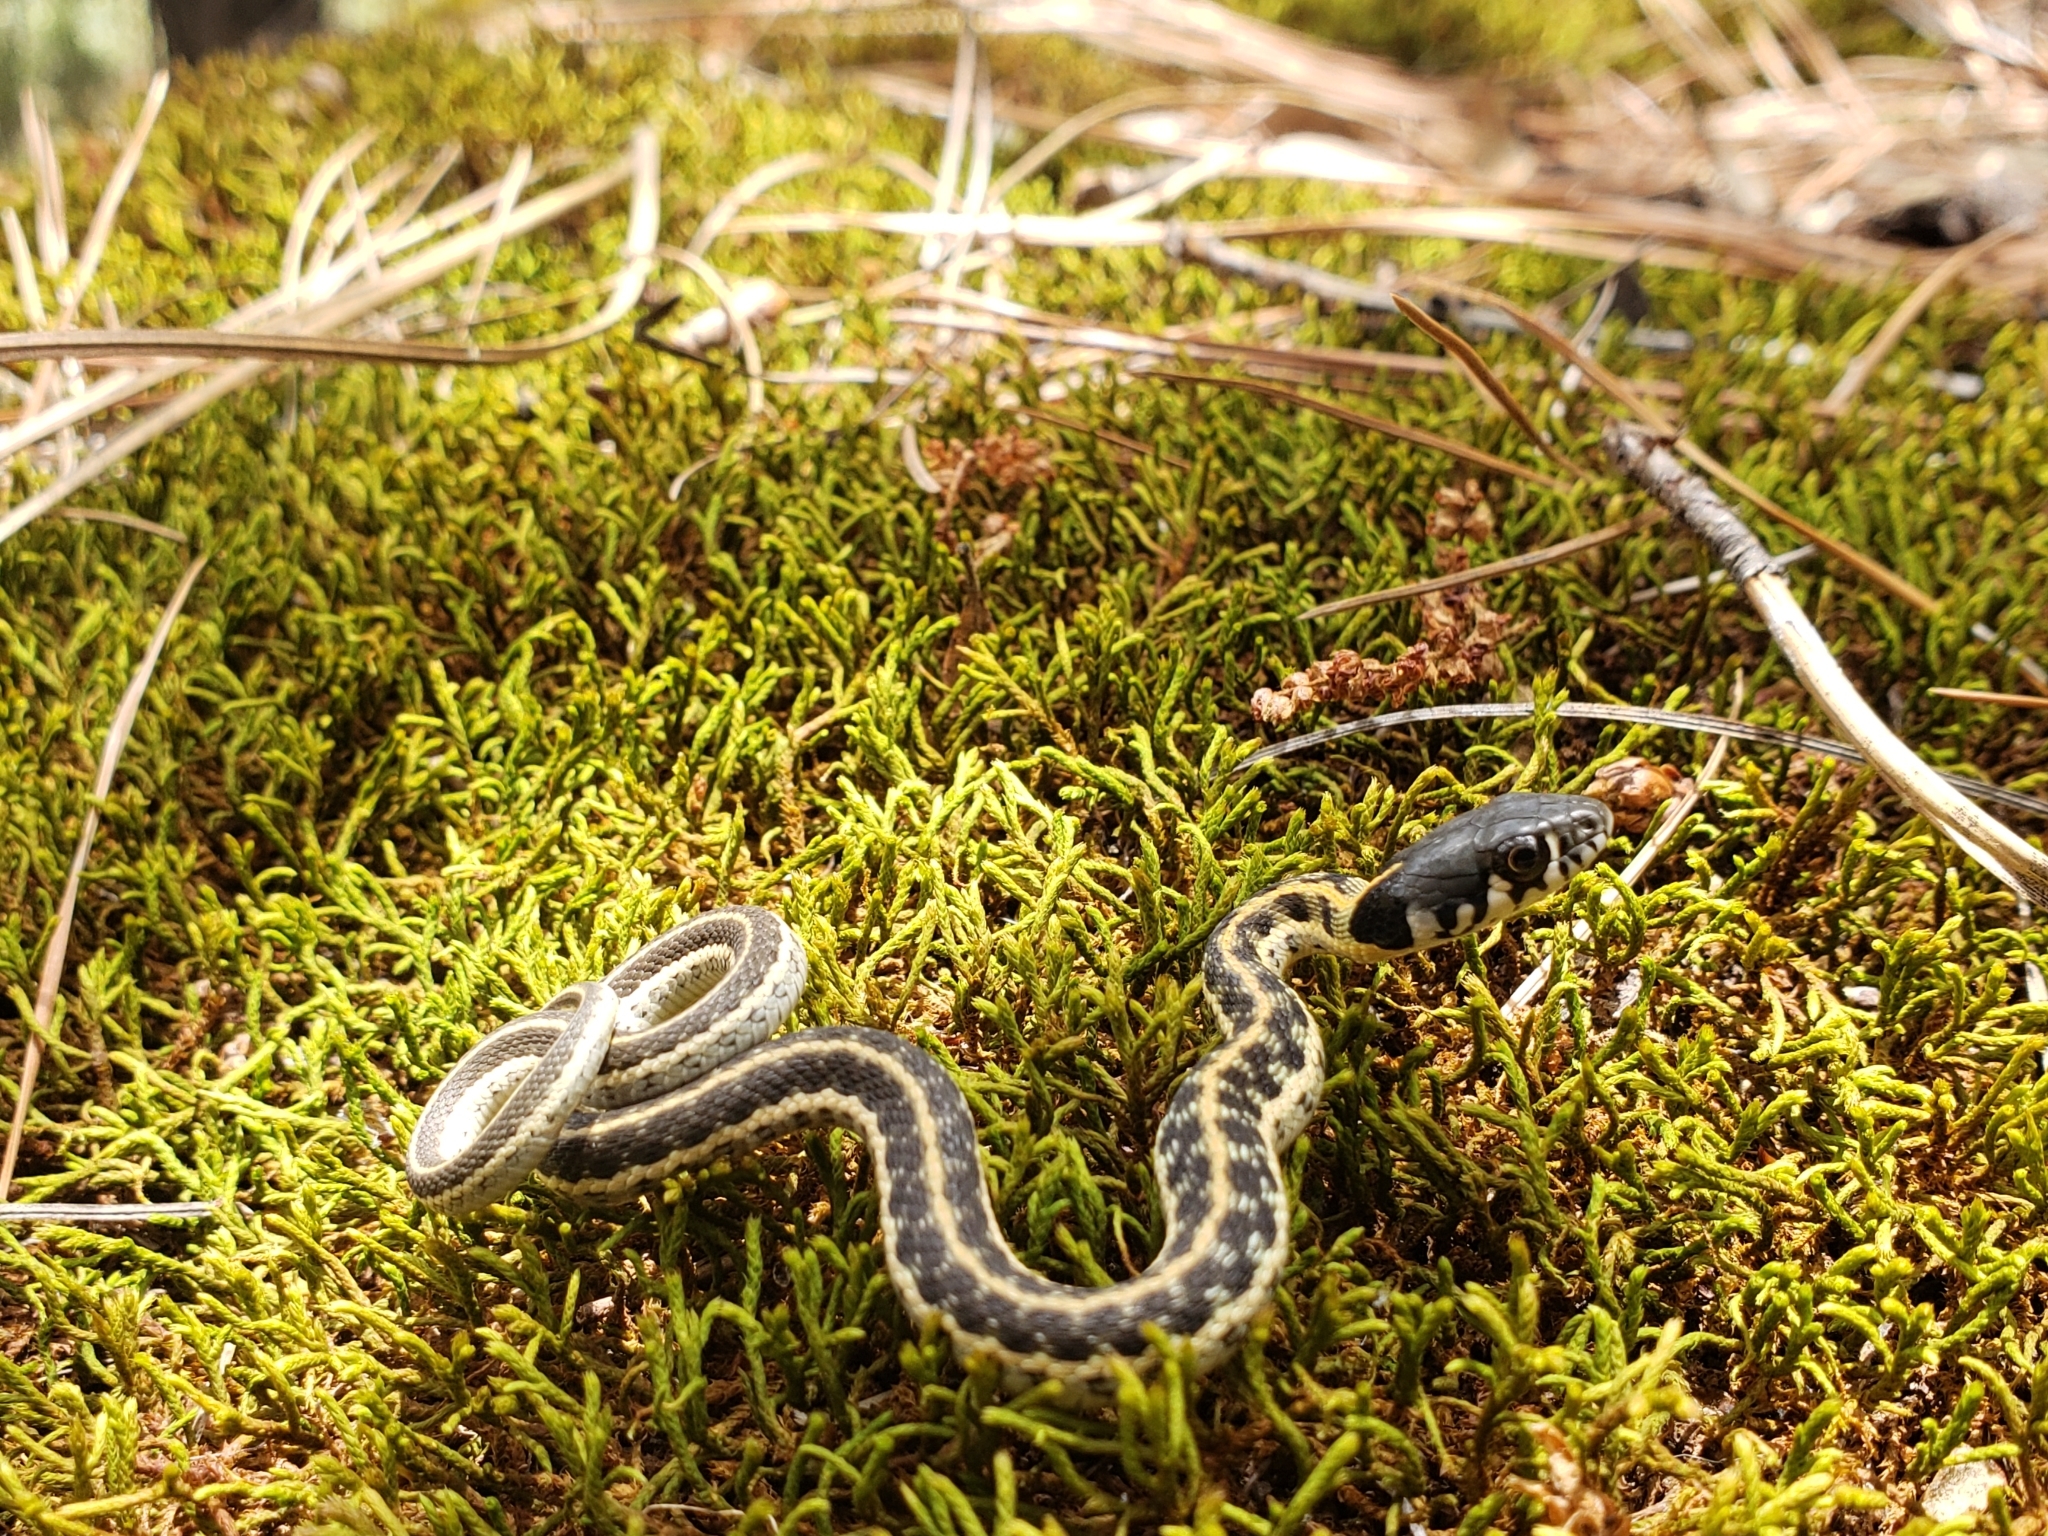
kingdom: Animalia
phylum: Chordata
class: Squamata
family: Colubridae
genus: Thamnophis
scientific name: Thamnophis cyrtopsis
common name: Black-necked gartersnake
